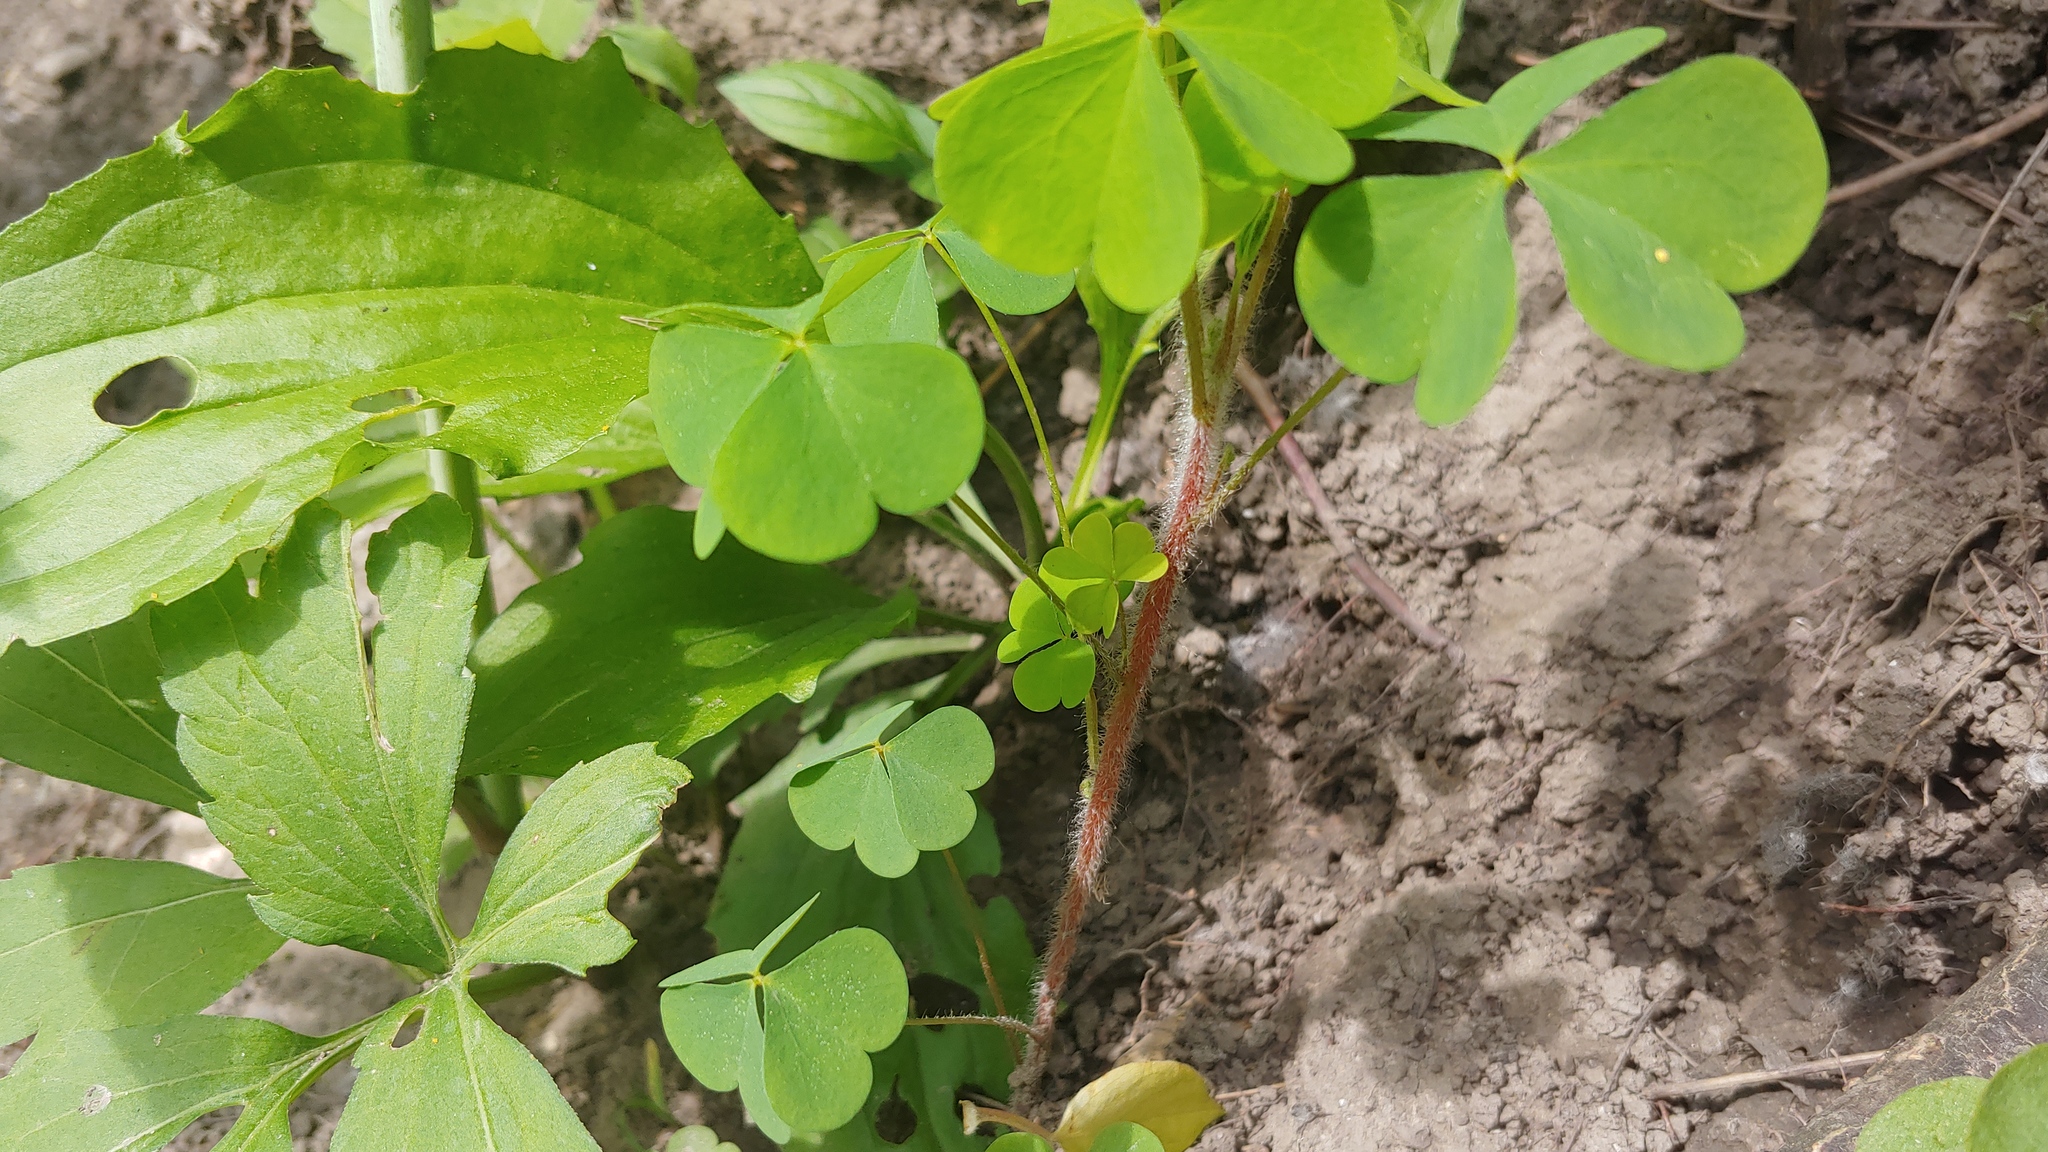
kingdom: Plantae
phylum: Tracheophyta
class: Magnoliopsida
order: Oxalidales
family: Oxalidaceae
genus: Oxalis
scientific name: Oxalis stricta
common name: Upright yellow-sorrel
